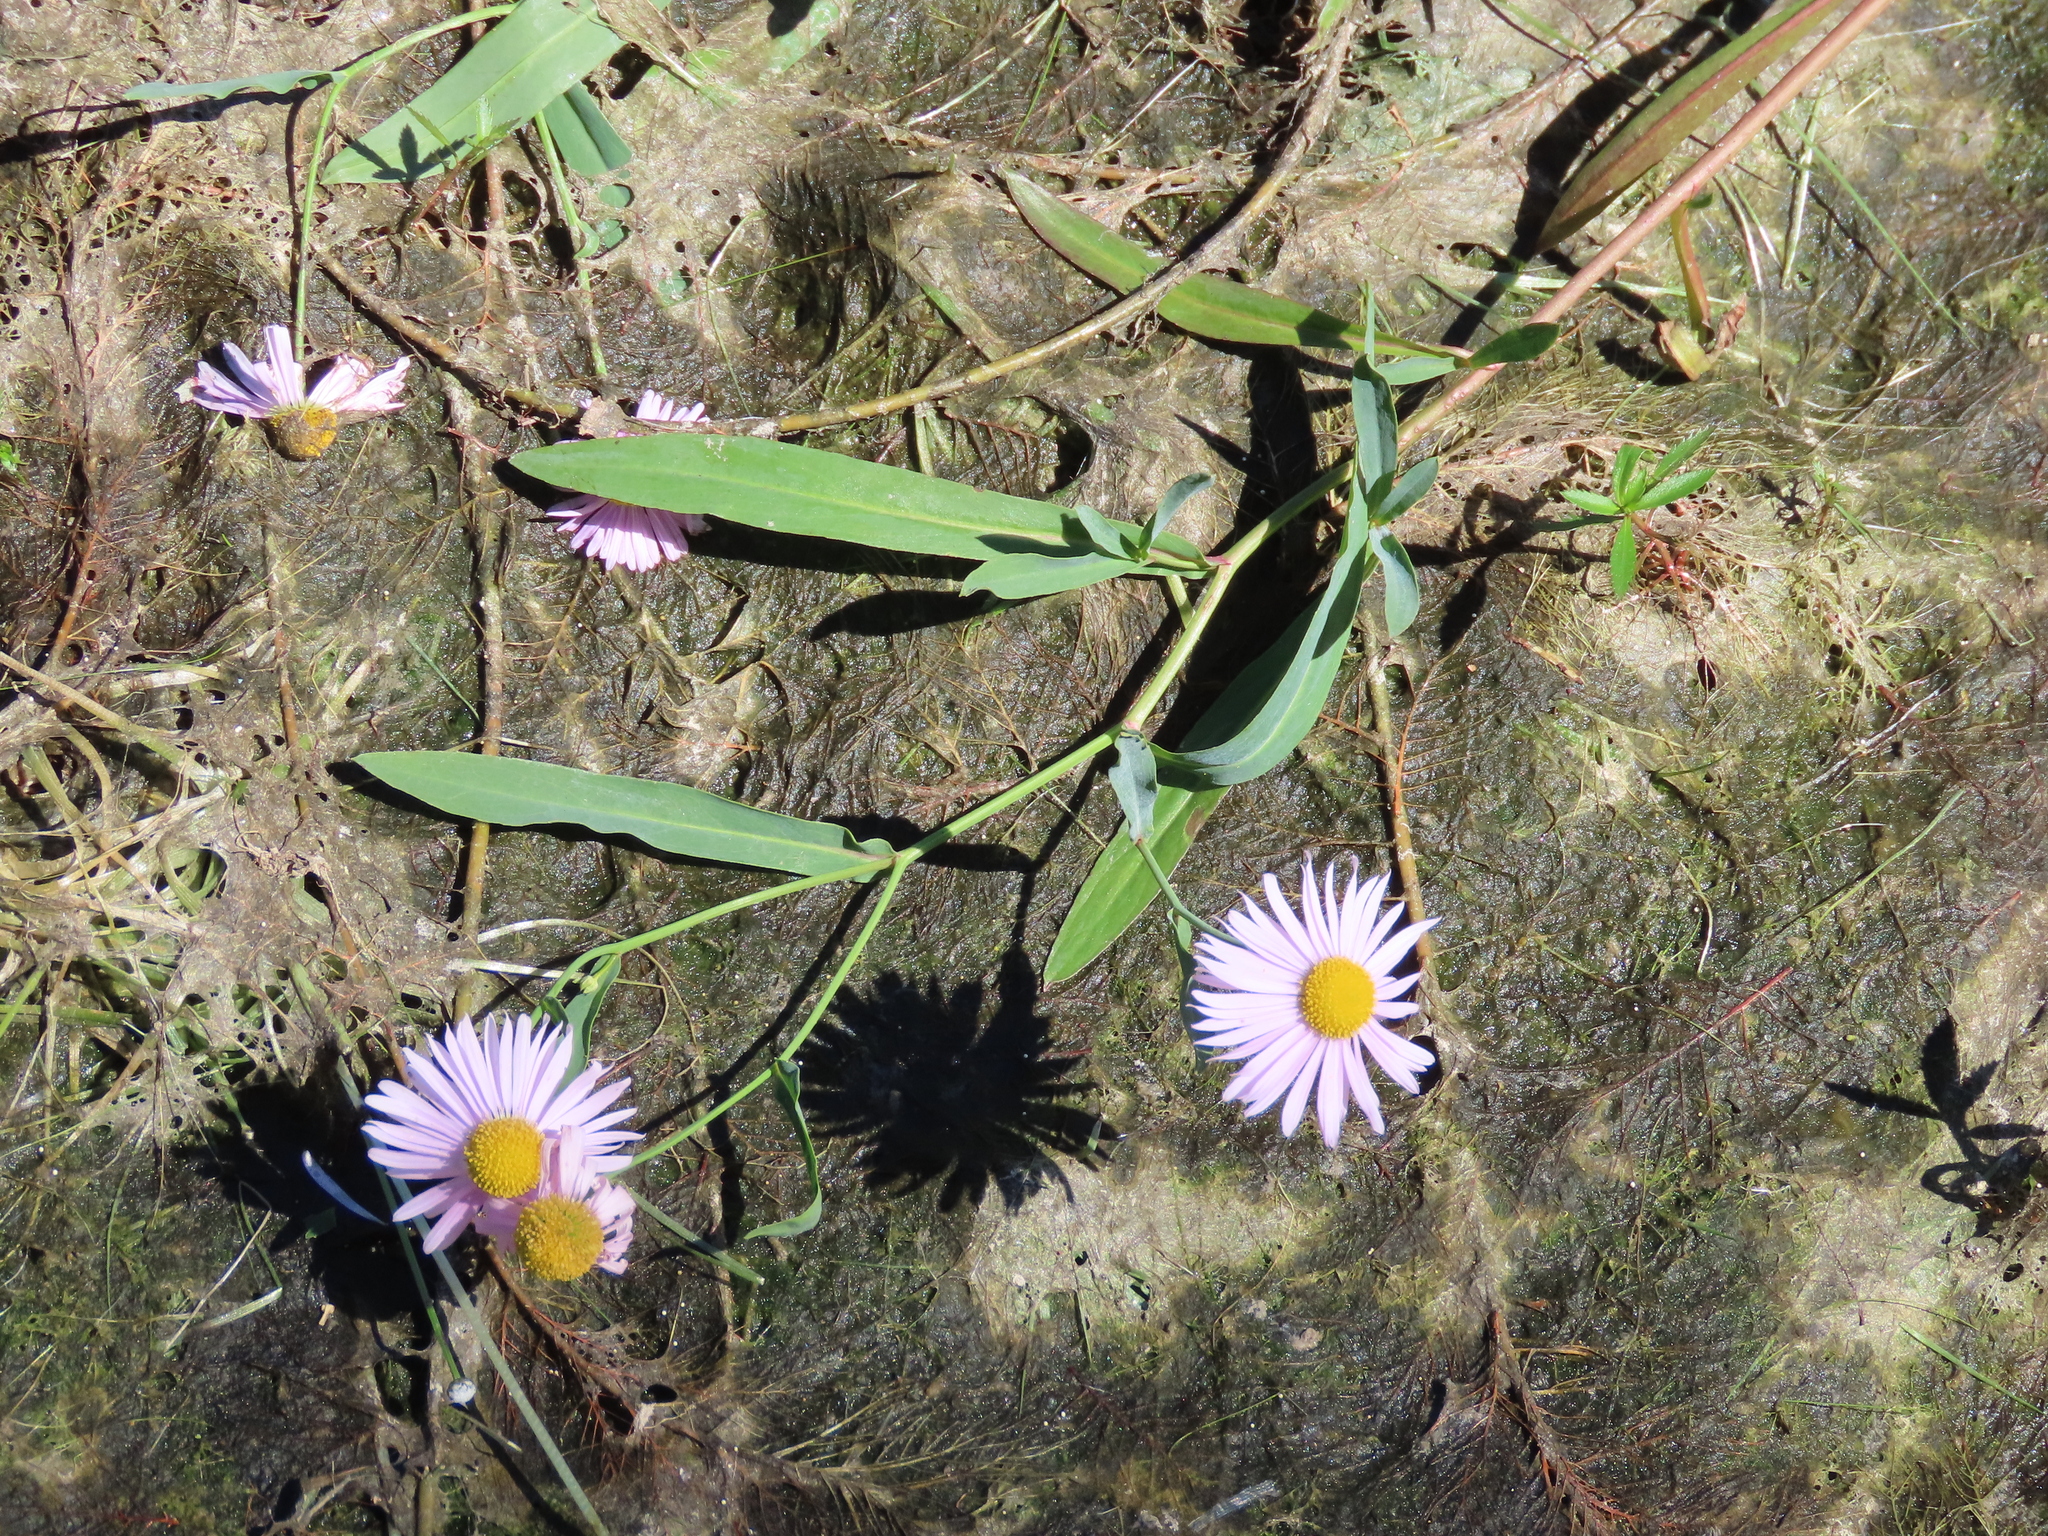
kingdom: Plantae
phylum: Tracheophyta
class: Magnoliopsida
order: Asterales
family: Asteraceae
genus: Boltonia
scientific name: Boltonia montana
